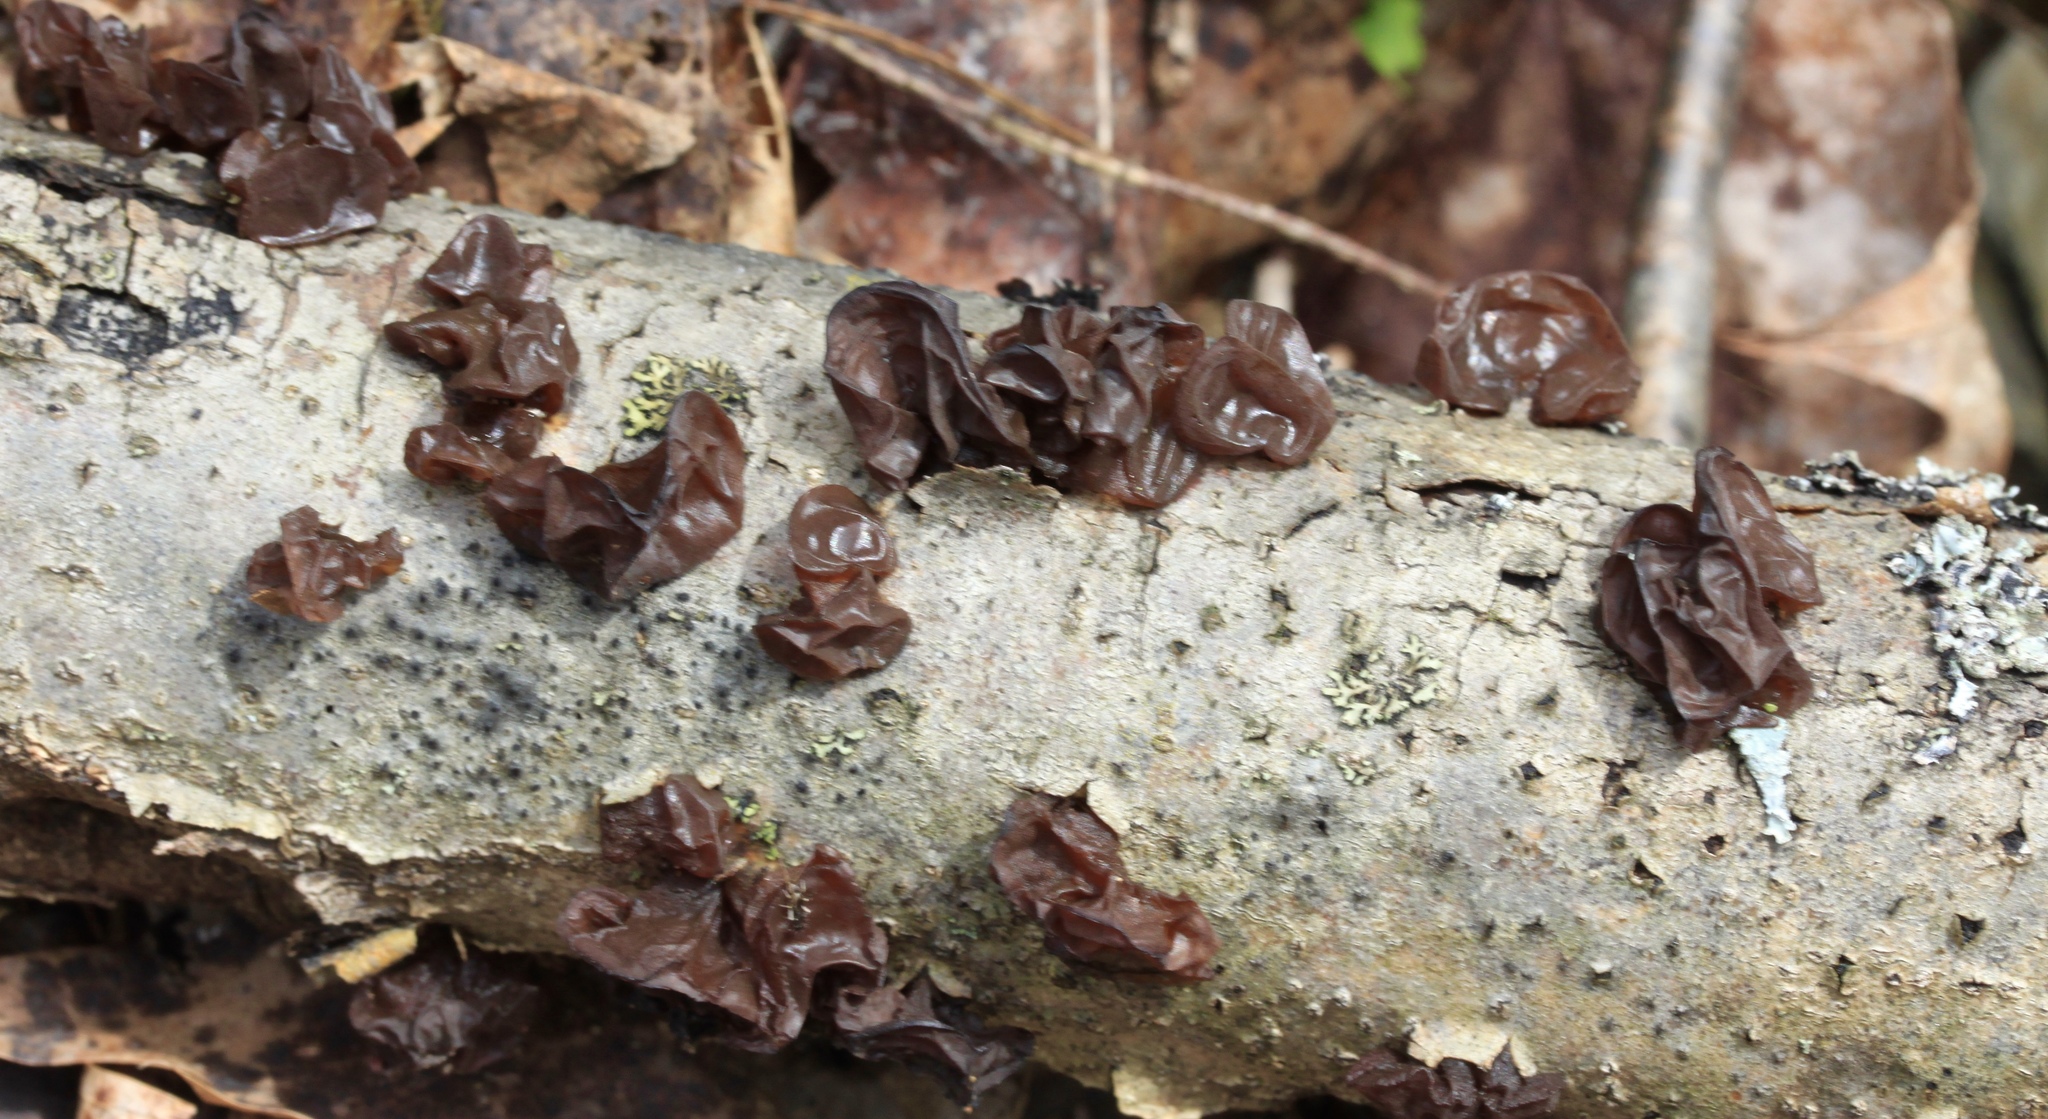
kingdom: Fungi
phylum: Basidiomycota
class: Agaricomycetes
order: Auriculariales
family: Auriculariaceae
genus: Exidia
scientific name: Exidia
